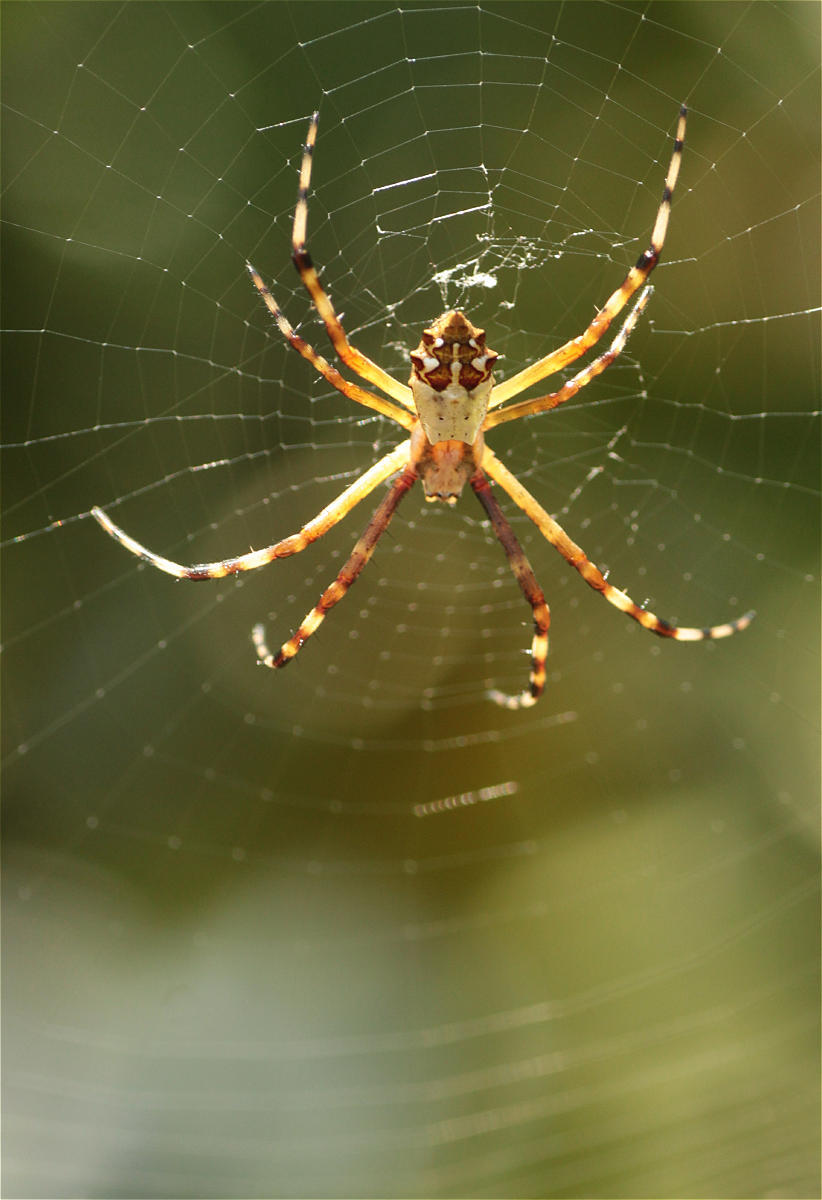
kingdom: Animalia
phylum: Arthropoda
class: Arachnida
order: Araneae
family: Araneidae
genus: Argiope
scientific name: Argiope argentata
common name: Orb weavers
